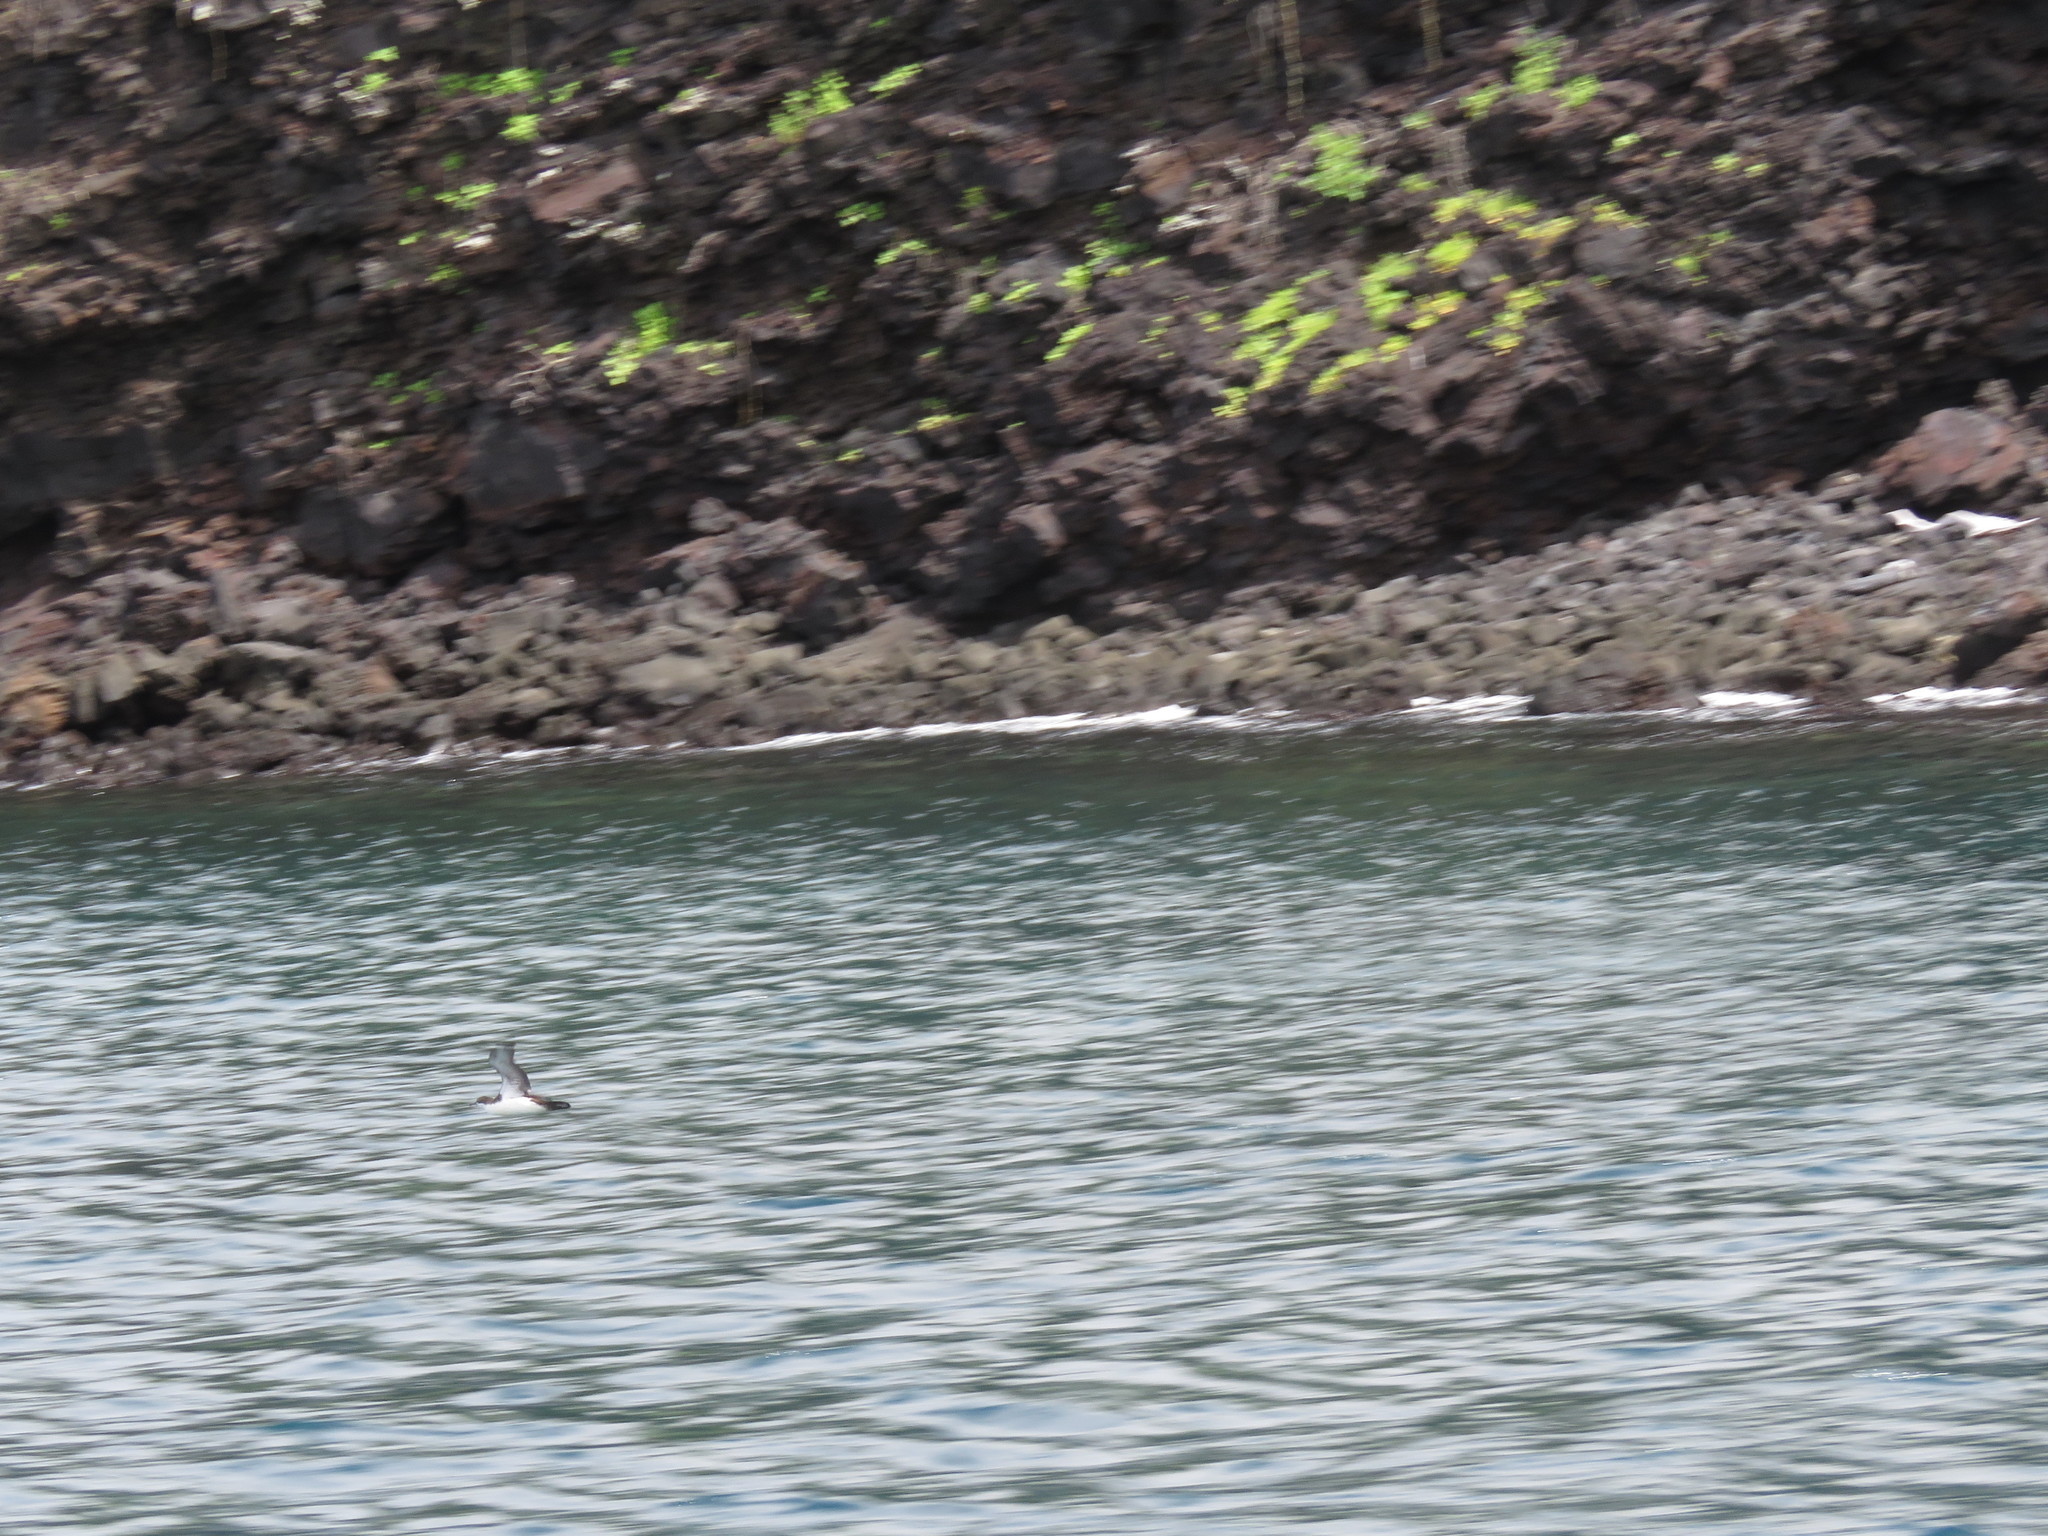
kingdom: Animalia
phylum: Chordata
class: Aves
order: Procellariiformes
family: Procellariidae
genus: Puffinus
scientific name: Puffinus subalaris
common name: Galapagos shearwater
